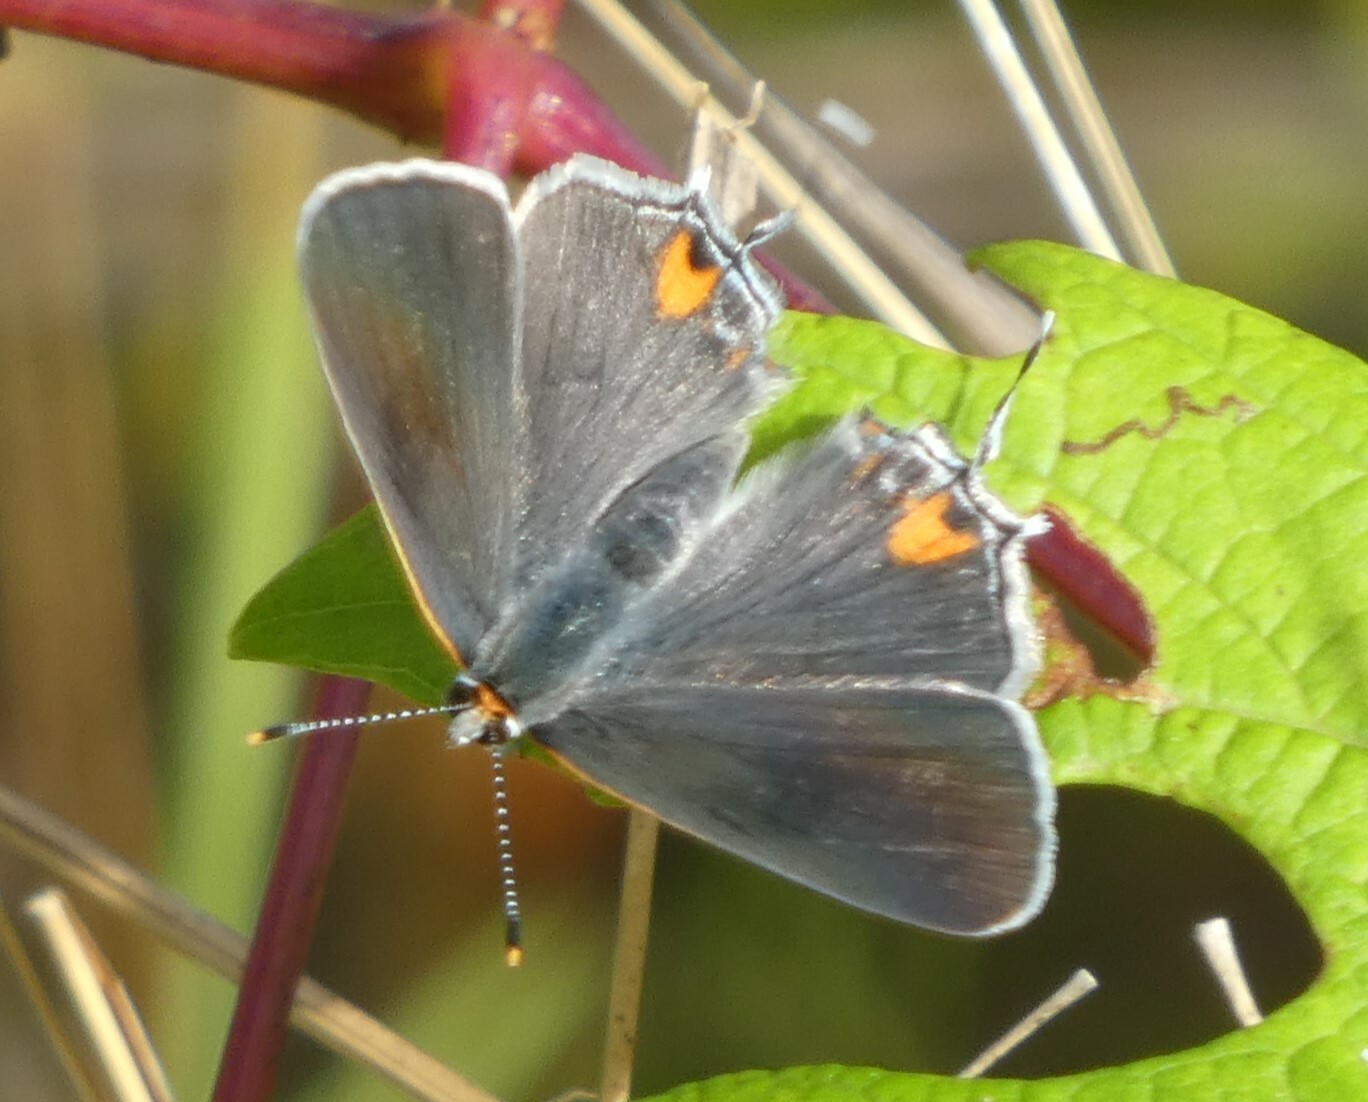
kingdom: Animalia
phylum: Arthropoda
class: Insecta
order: Lepidoptera
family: Lycaenidae
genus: Strymon
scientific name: Strymon melinus
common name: Gray hairstreak
